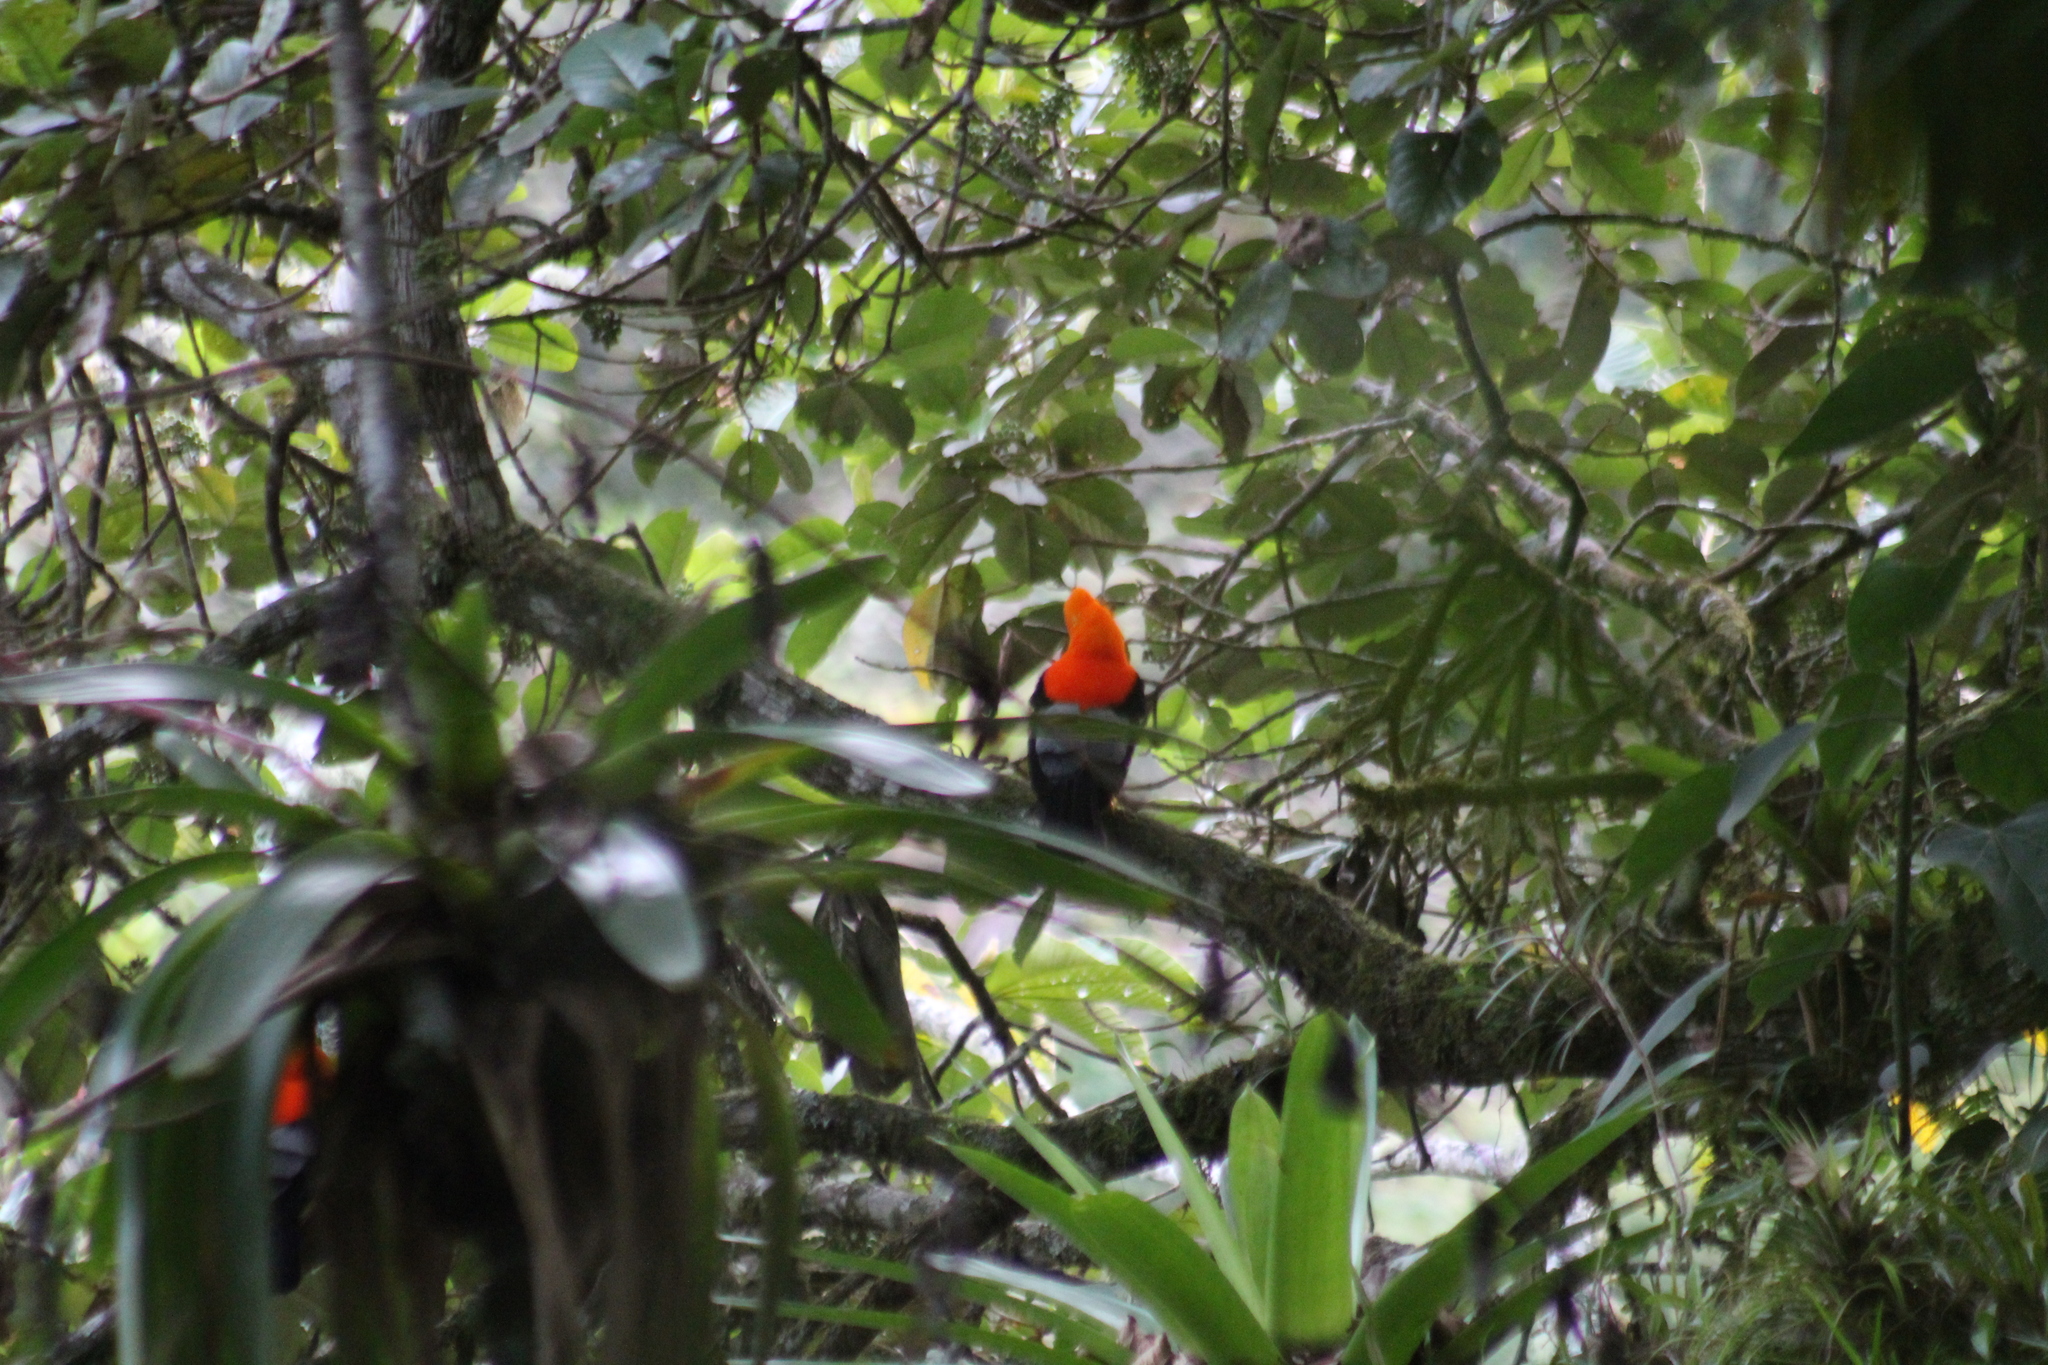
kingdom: Animalia
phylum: Chordata
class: Aves
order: Passeriformes
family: Cotingidae
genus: Rupicola
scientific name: Rupicola peruvianus
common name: Andean cock-of-the-rock
